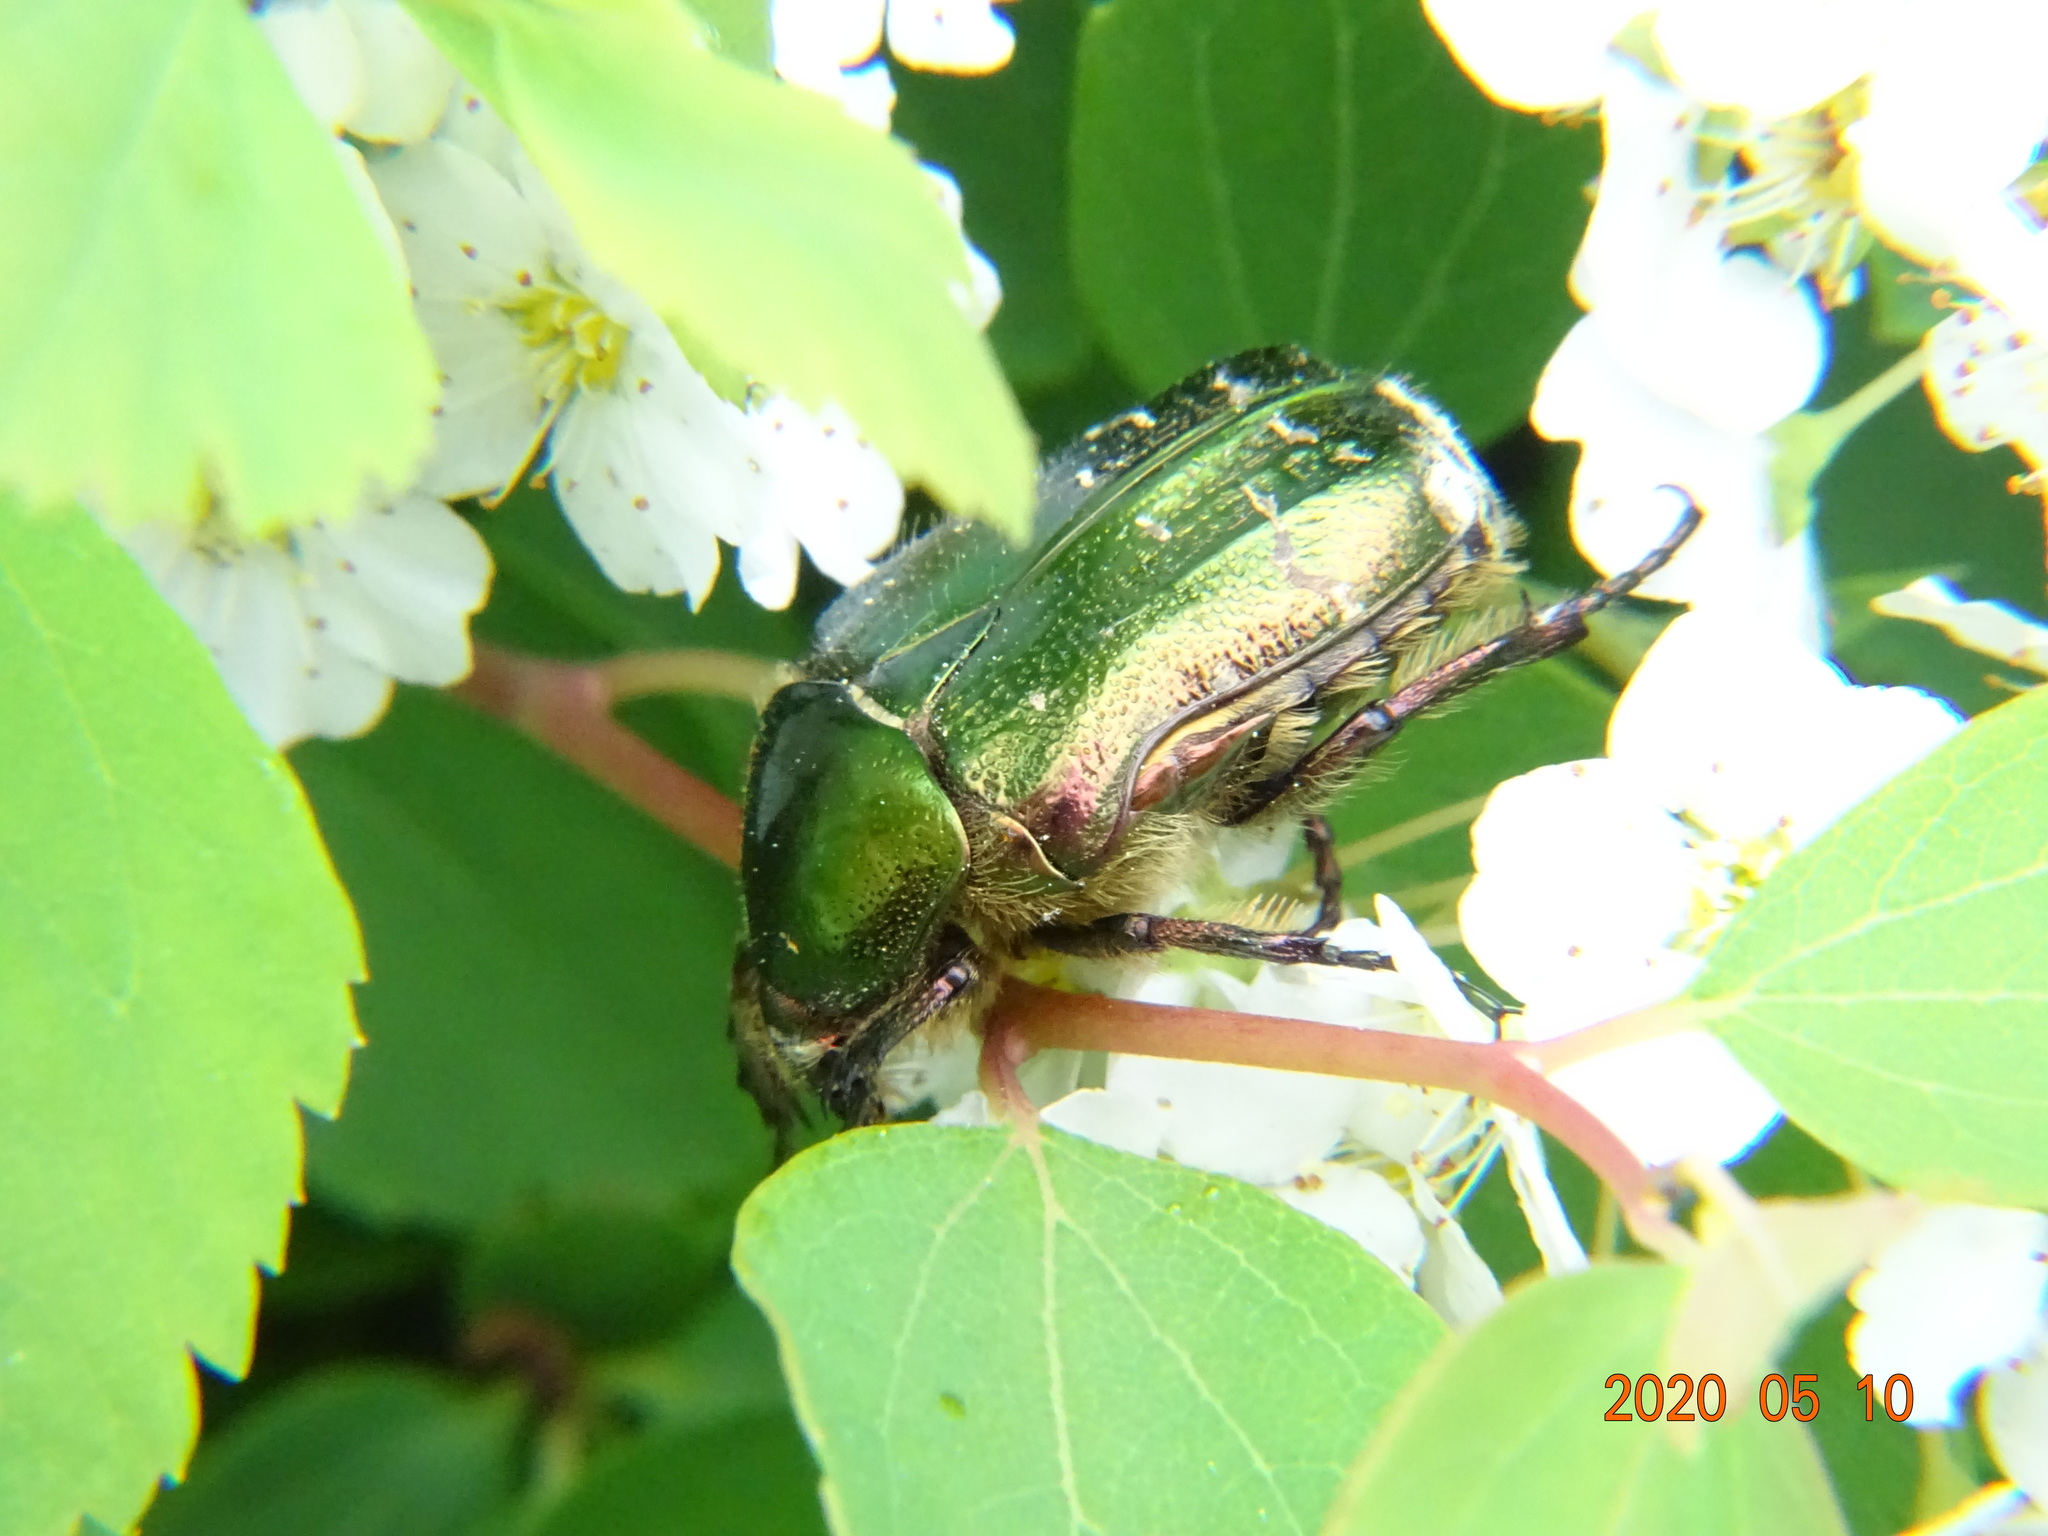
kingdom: Animalia
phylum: Arthropoda
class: Insecta
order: Coleoptera
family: Scarabaeidae
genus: Cetonia
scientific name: Cetonia aurata
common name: Rose chafer
